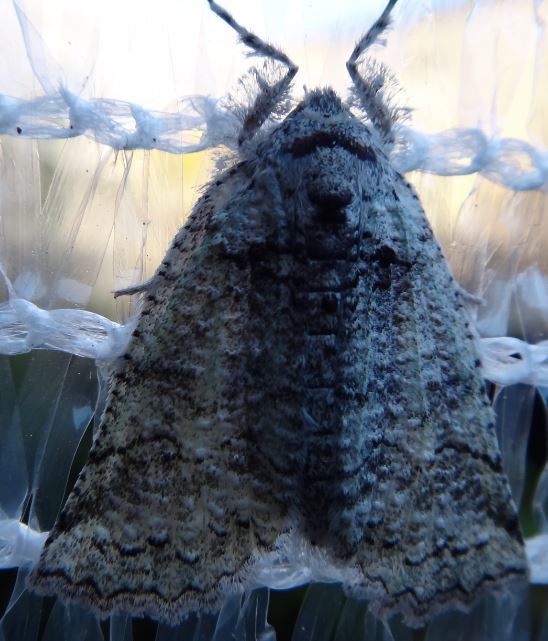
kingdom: Animalia
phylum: Arthropoda
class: Insecta
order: Lepidoptera
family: Geometridae
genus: Declana
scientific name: Declana floccosa
